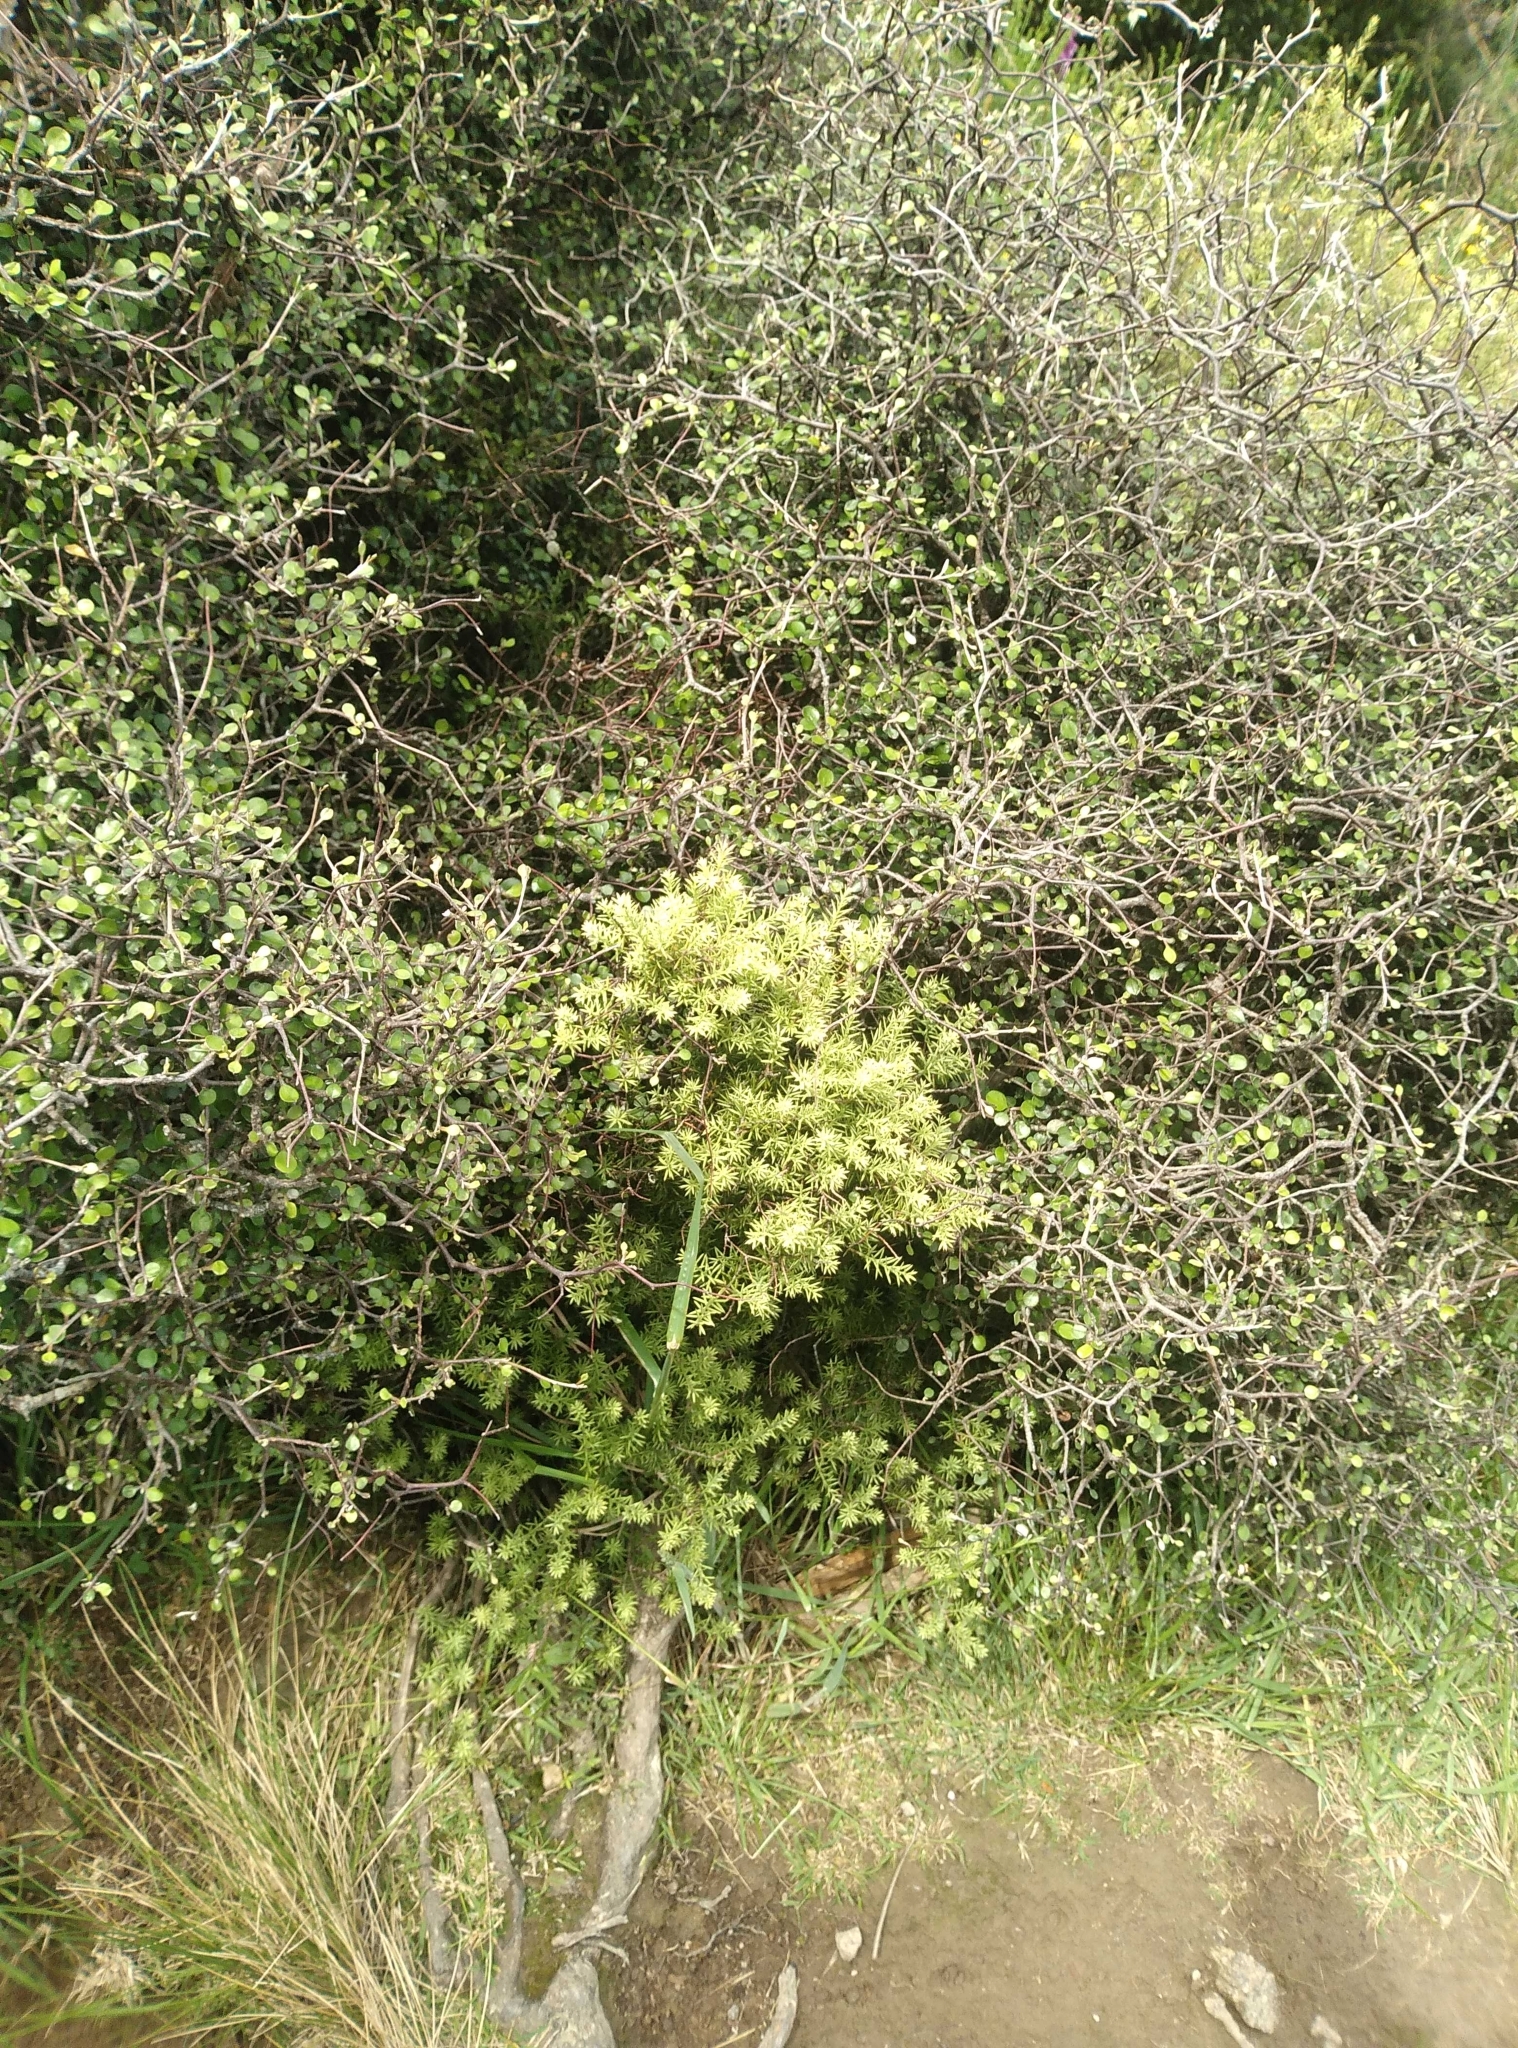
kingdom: Plantae
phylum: Tracheophyta
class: Magnoliopsida
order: Ericales
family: Ericaceae
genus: Leptecophylla
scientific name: Leptecophylla juniperina
